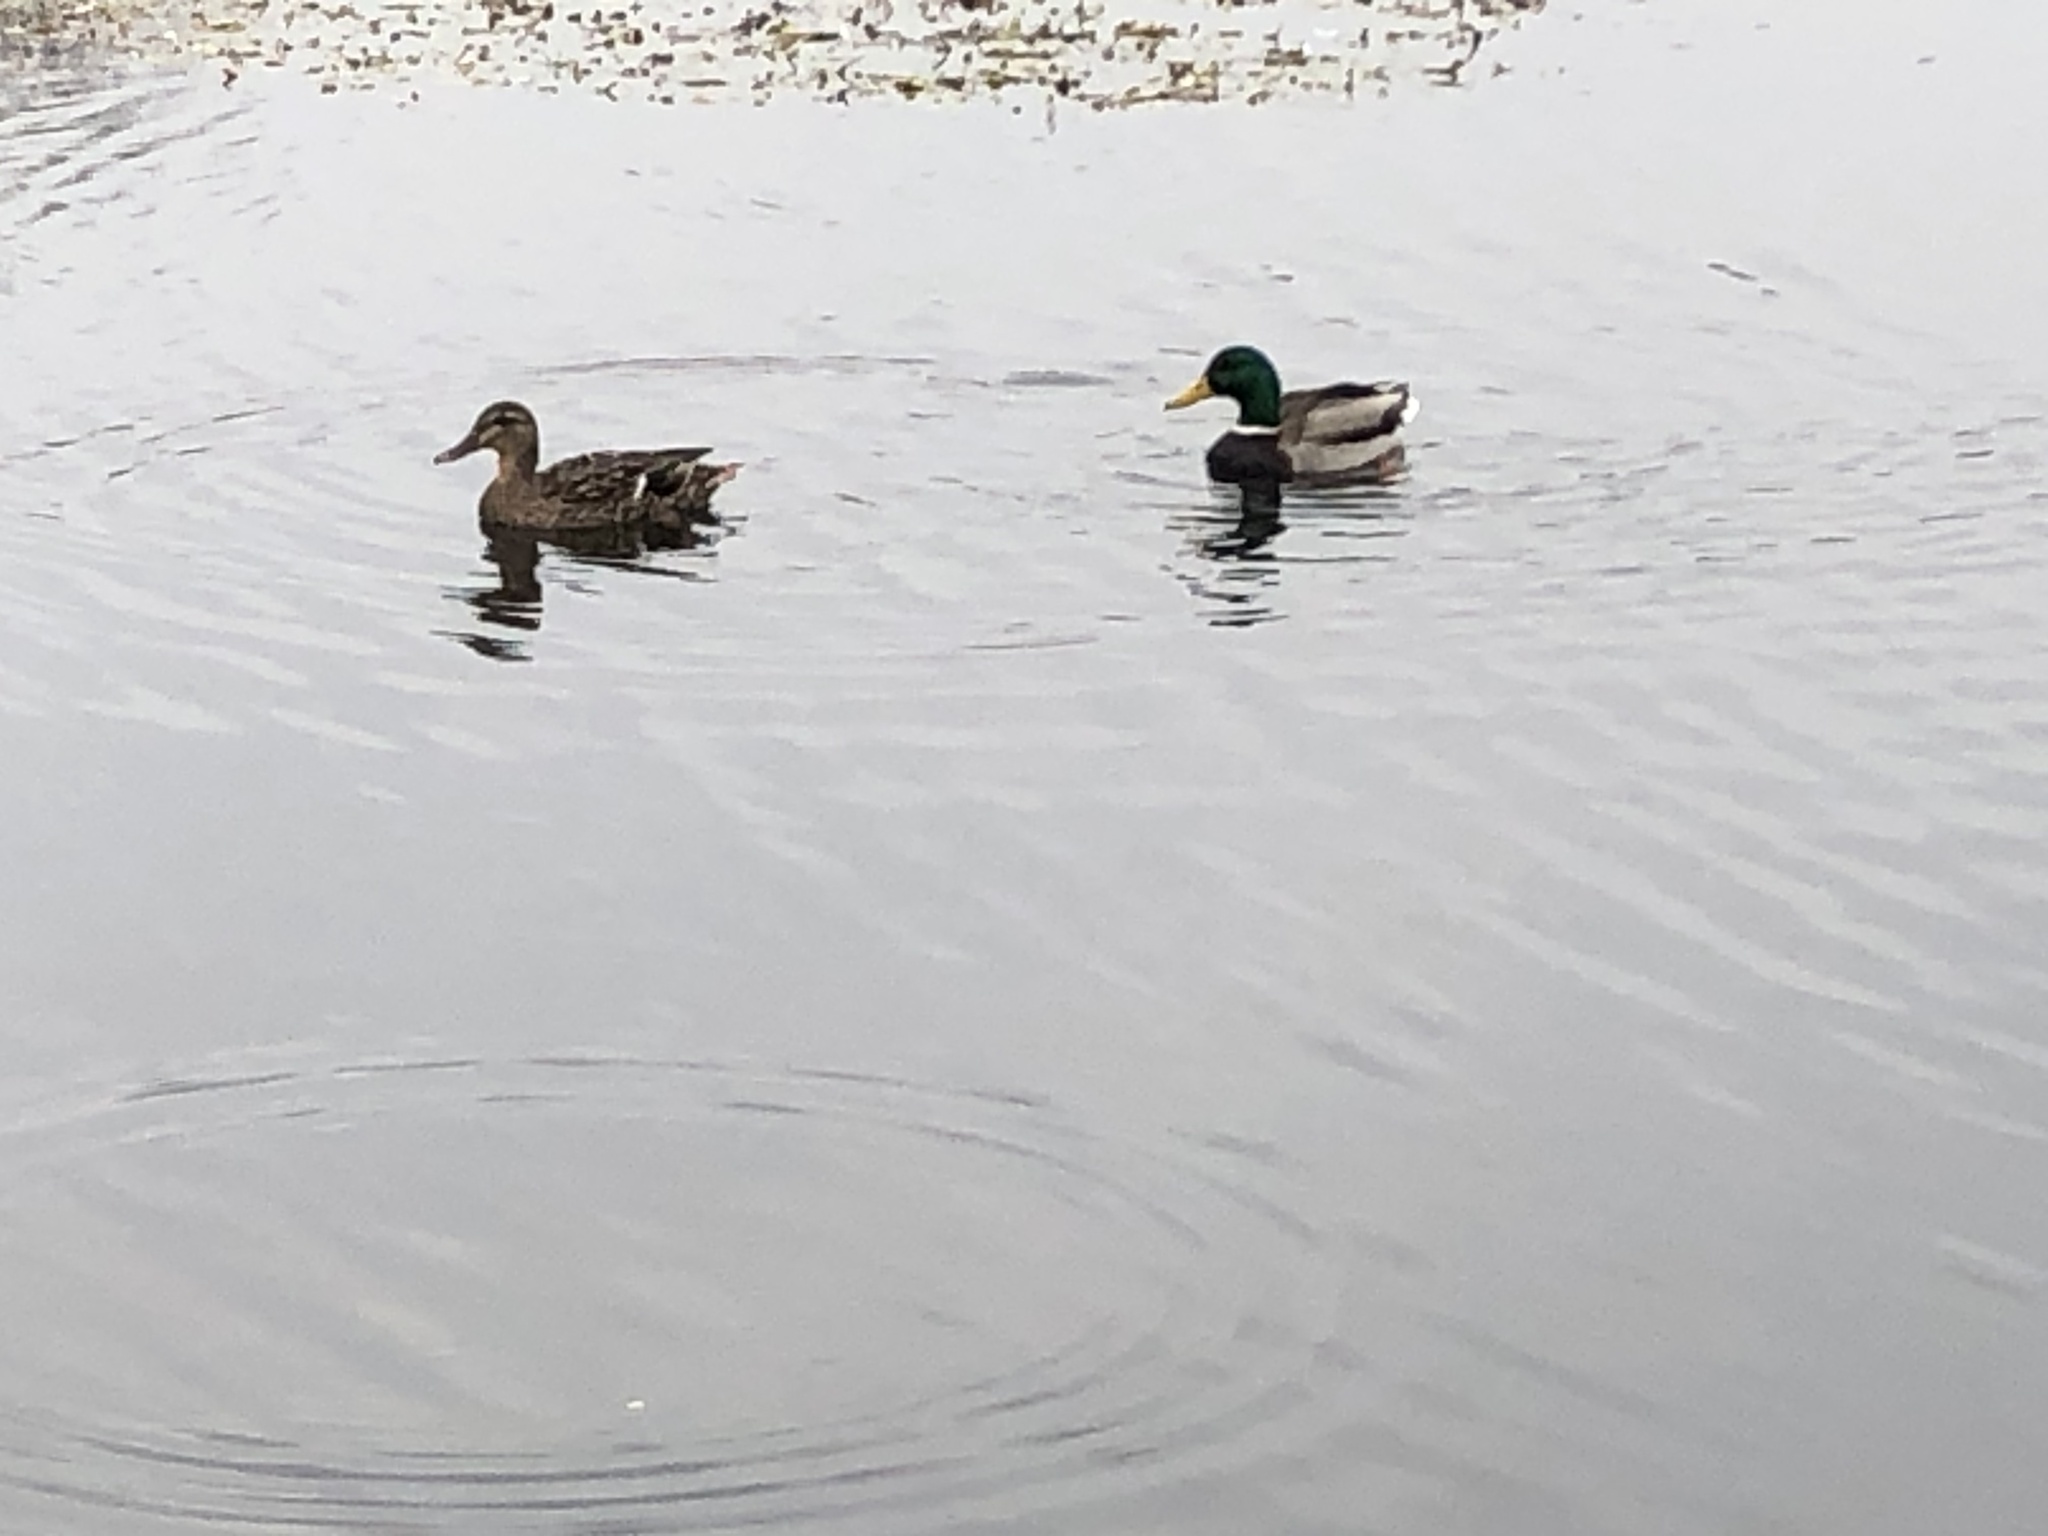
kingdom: Animalia
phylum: Chordata
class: Aves
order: Anseriformes
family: Anatidae
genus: Anas
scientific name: Anas platyrhynchos
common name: Mallard
